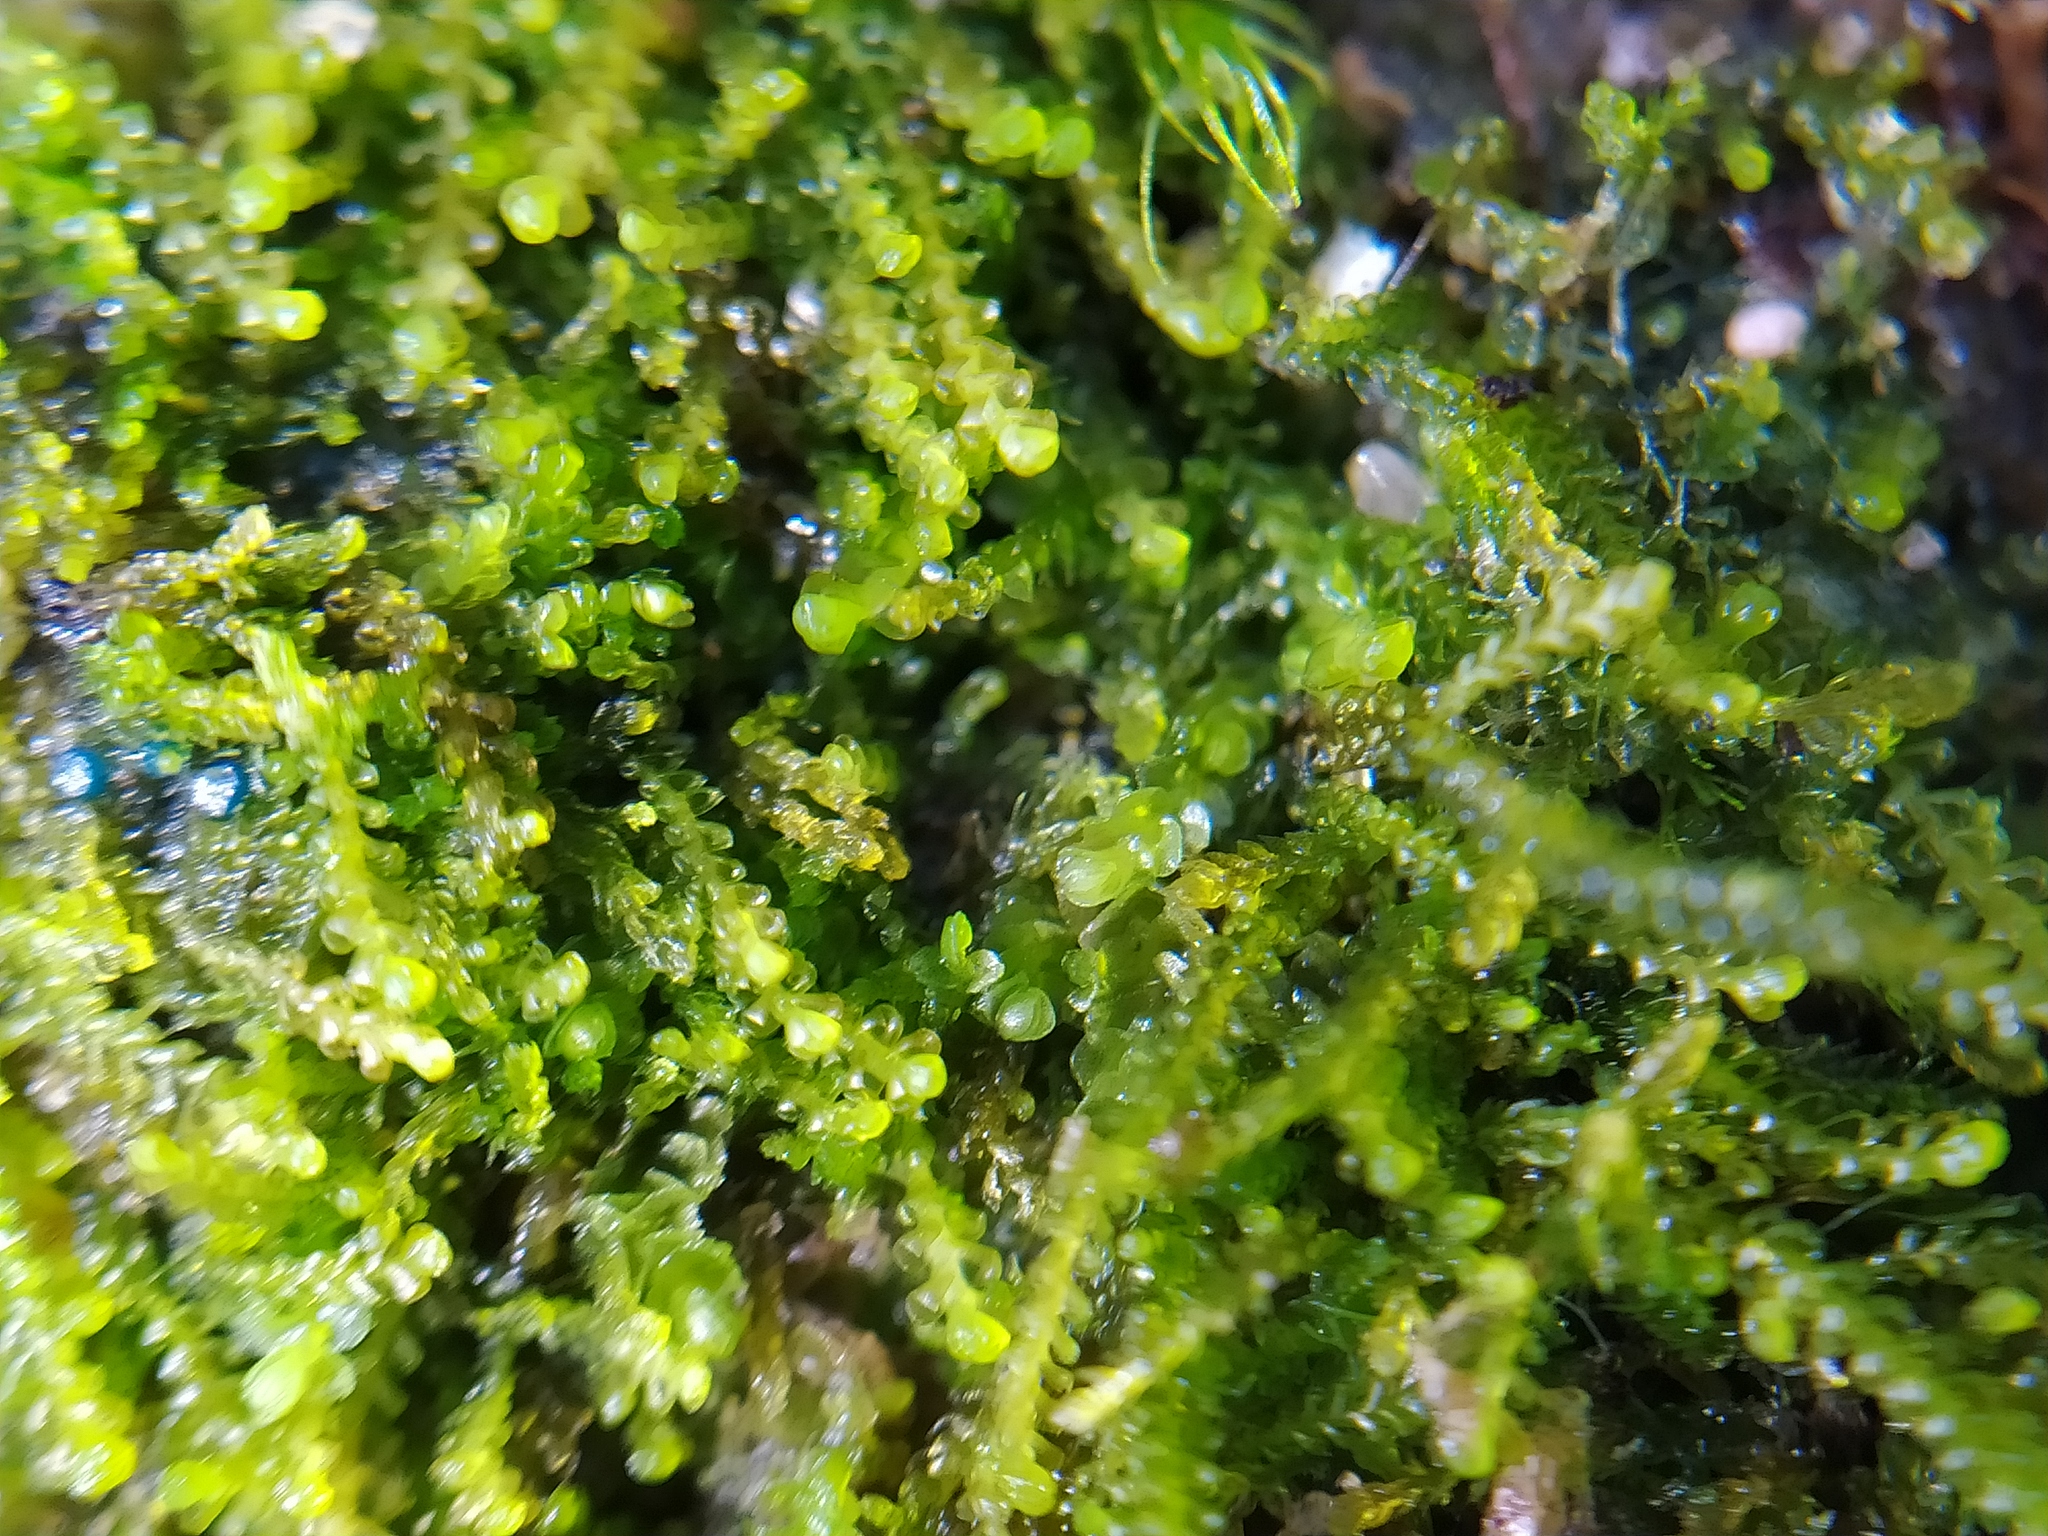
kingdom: Plantae
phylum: Marchantiophyta
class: Jungermanniopsida
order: Jungermanniales
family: Anastrophyllaceae
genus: Sphenolobus
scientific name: Sphenolobus minutus
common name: Comb notchwort
